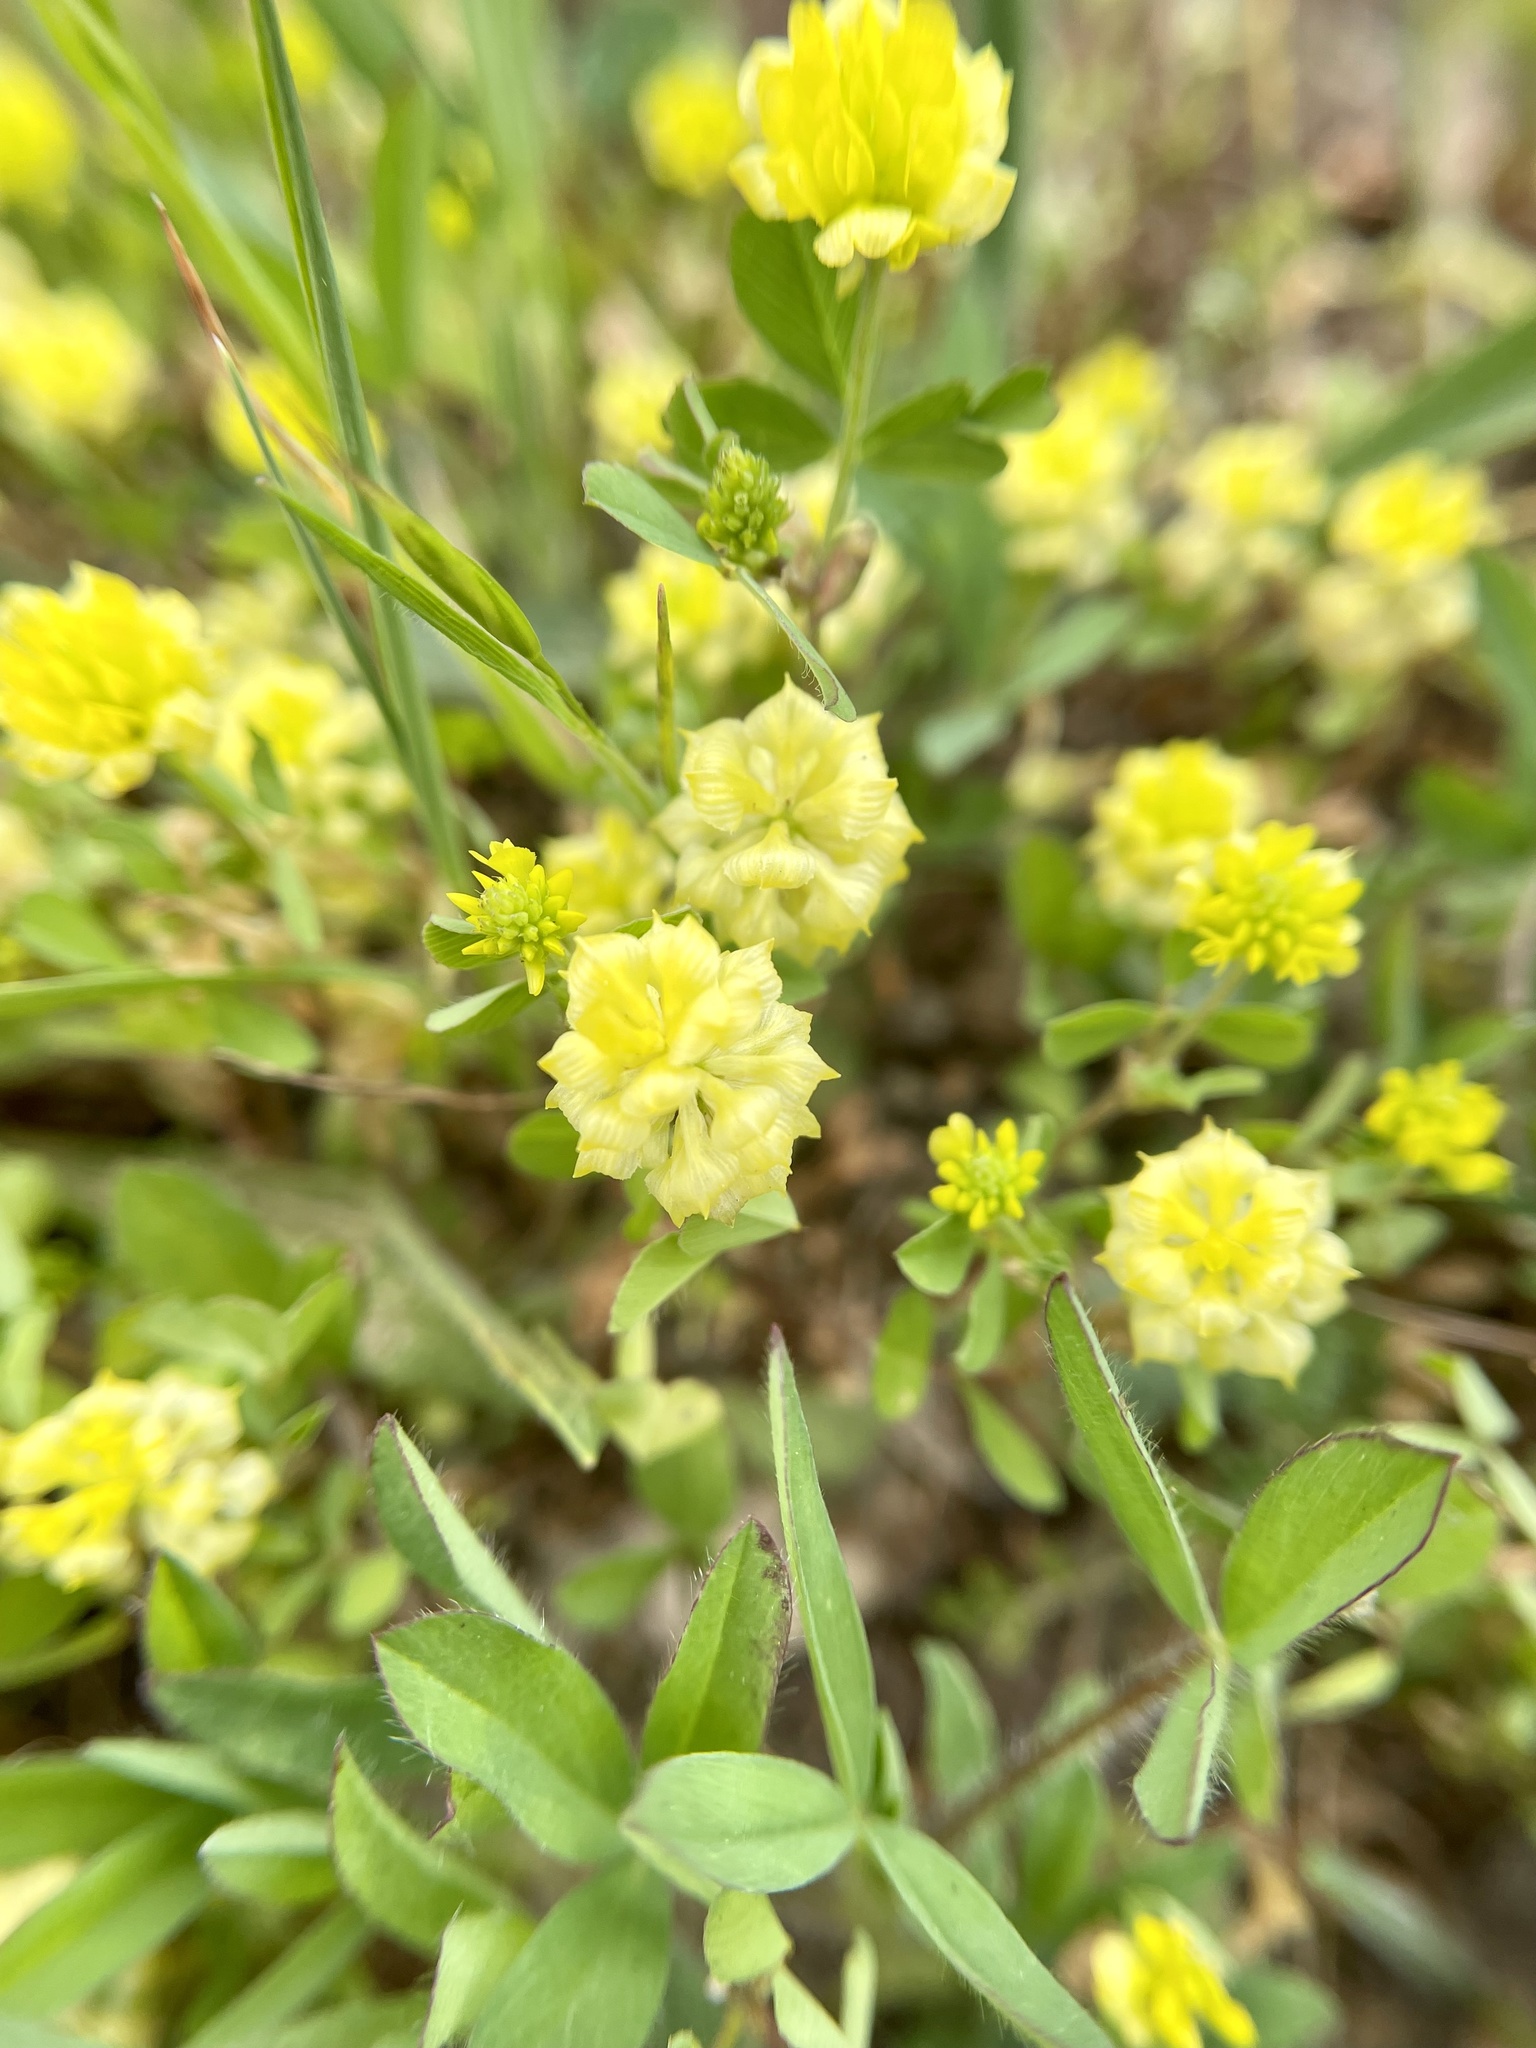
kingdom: Plantae
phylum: Tracheophyta
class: Magnoliopsida
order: Fabales
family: Fabaceae
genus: Trifolium
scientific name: Trifolium campestre
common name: Field clover
